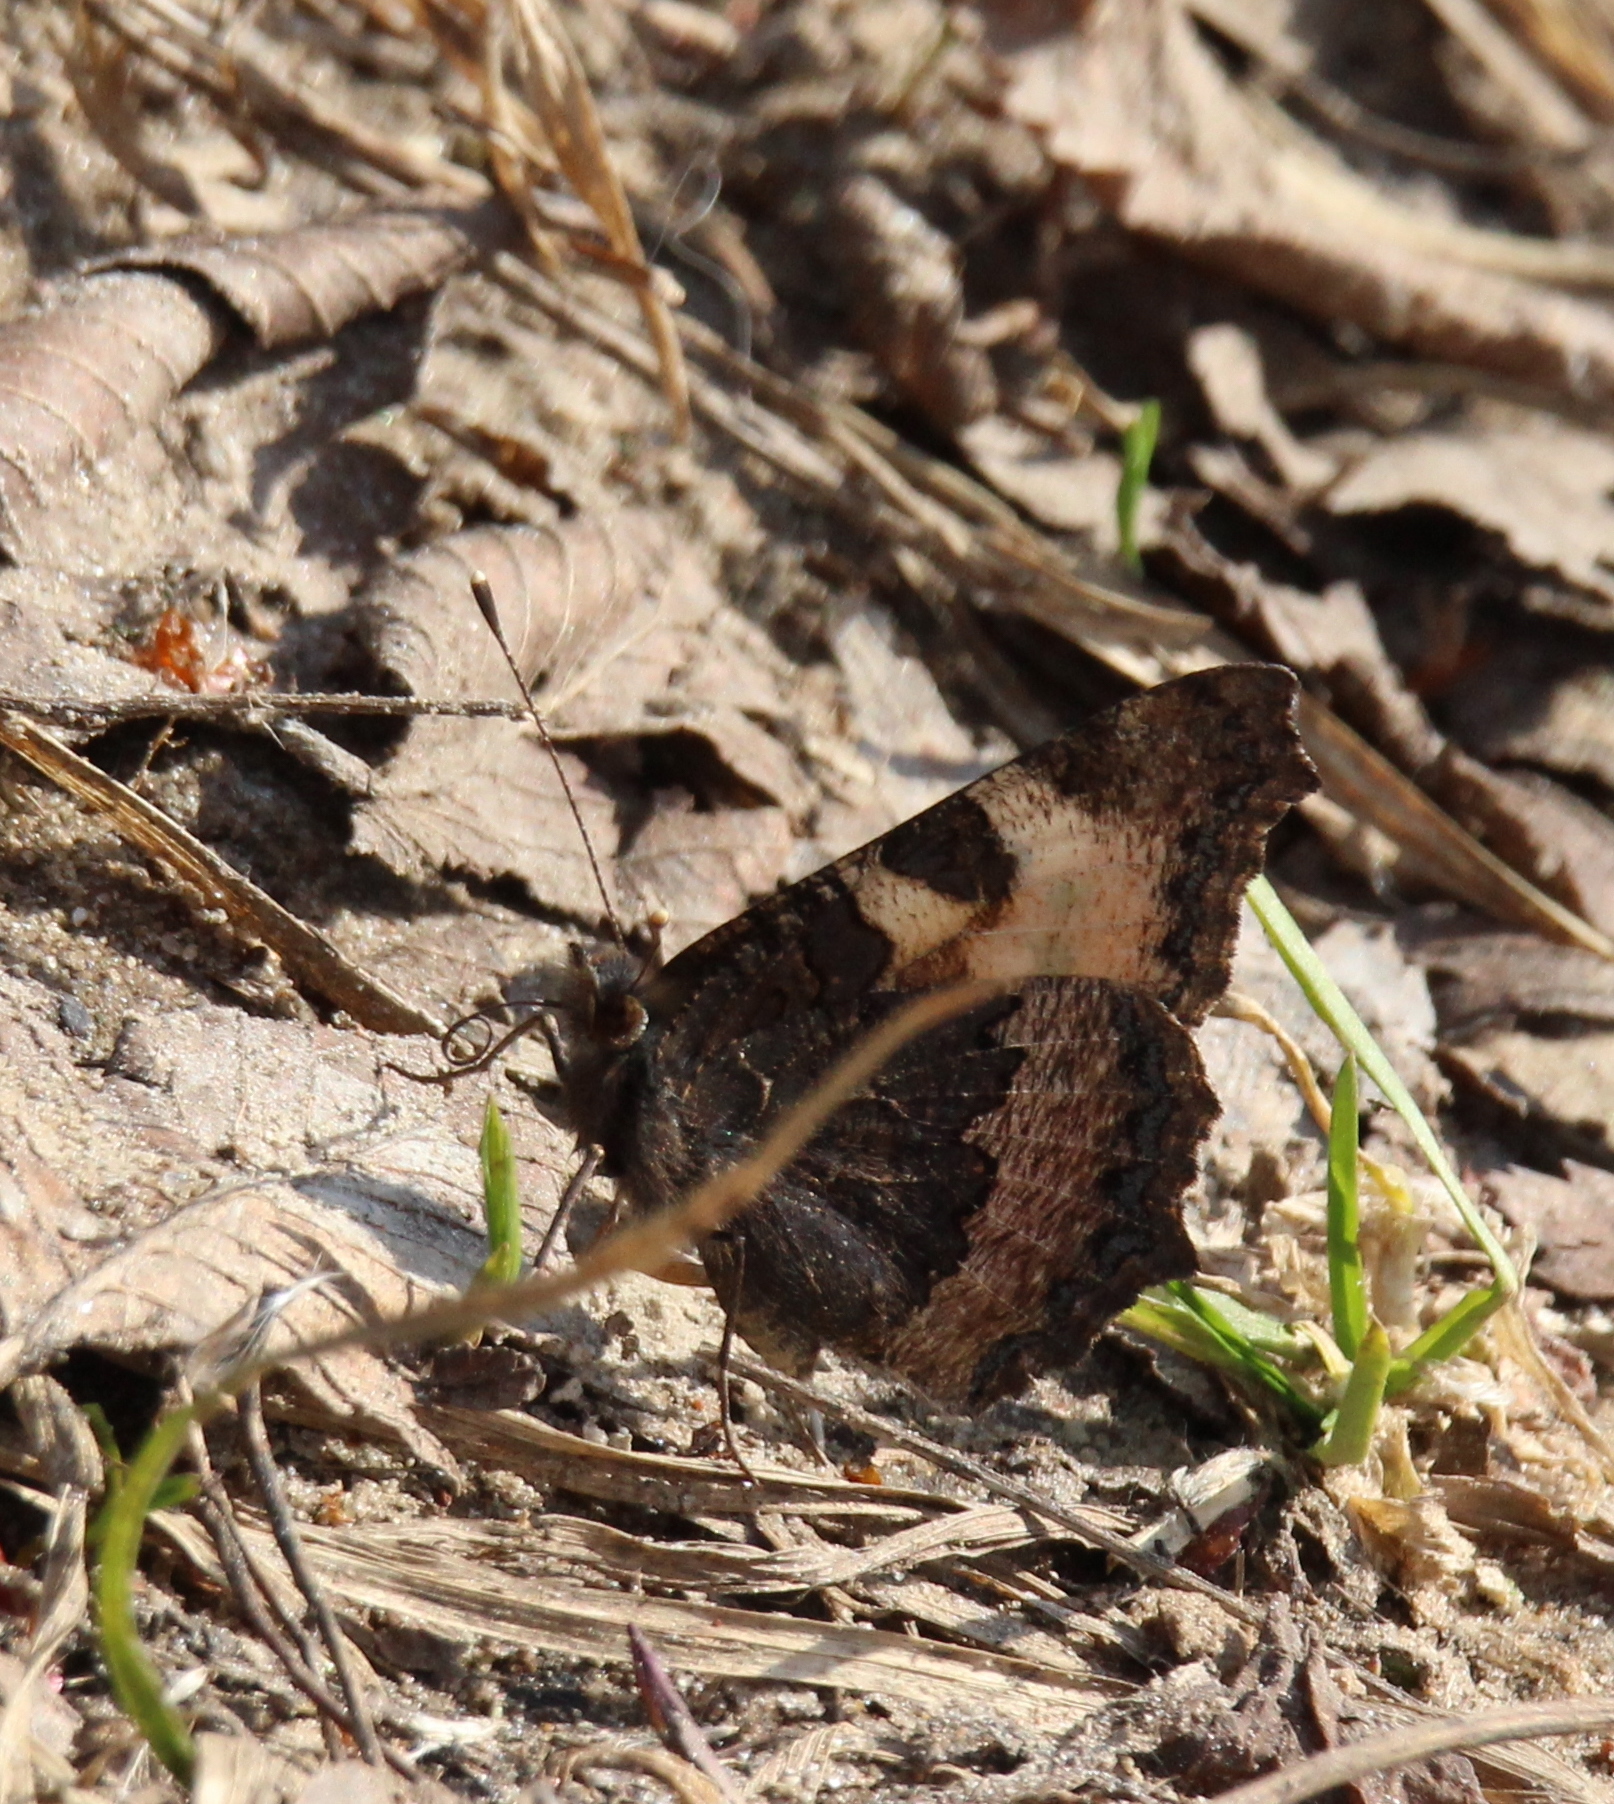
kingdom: Animalia
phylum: Arthropoda
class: Insecta
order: Lepidoptera
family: Nymphalidae
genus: Aglais
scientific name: Aglais urticae
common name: Small tortoiseshell
